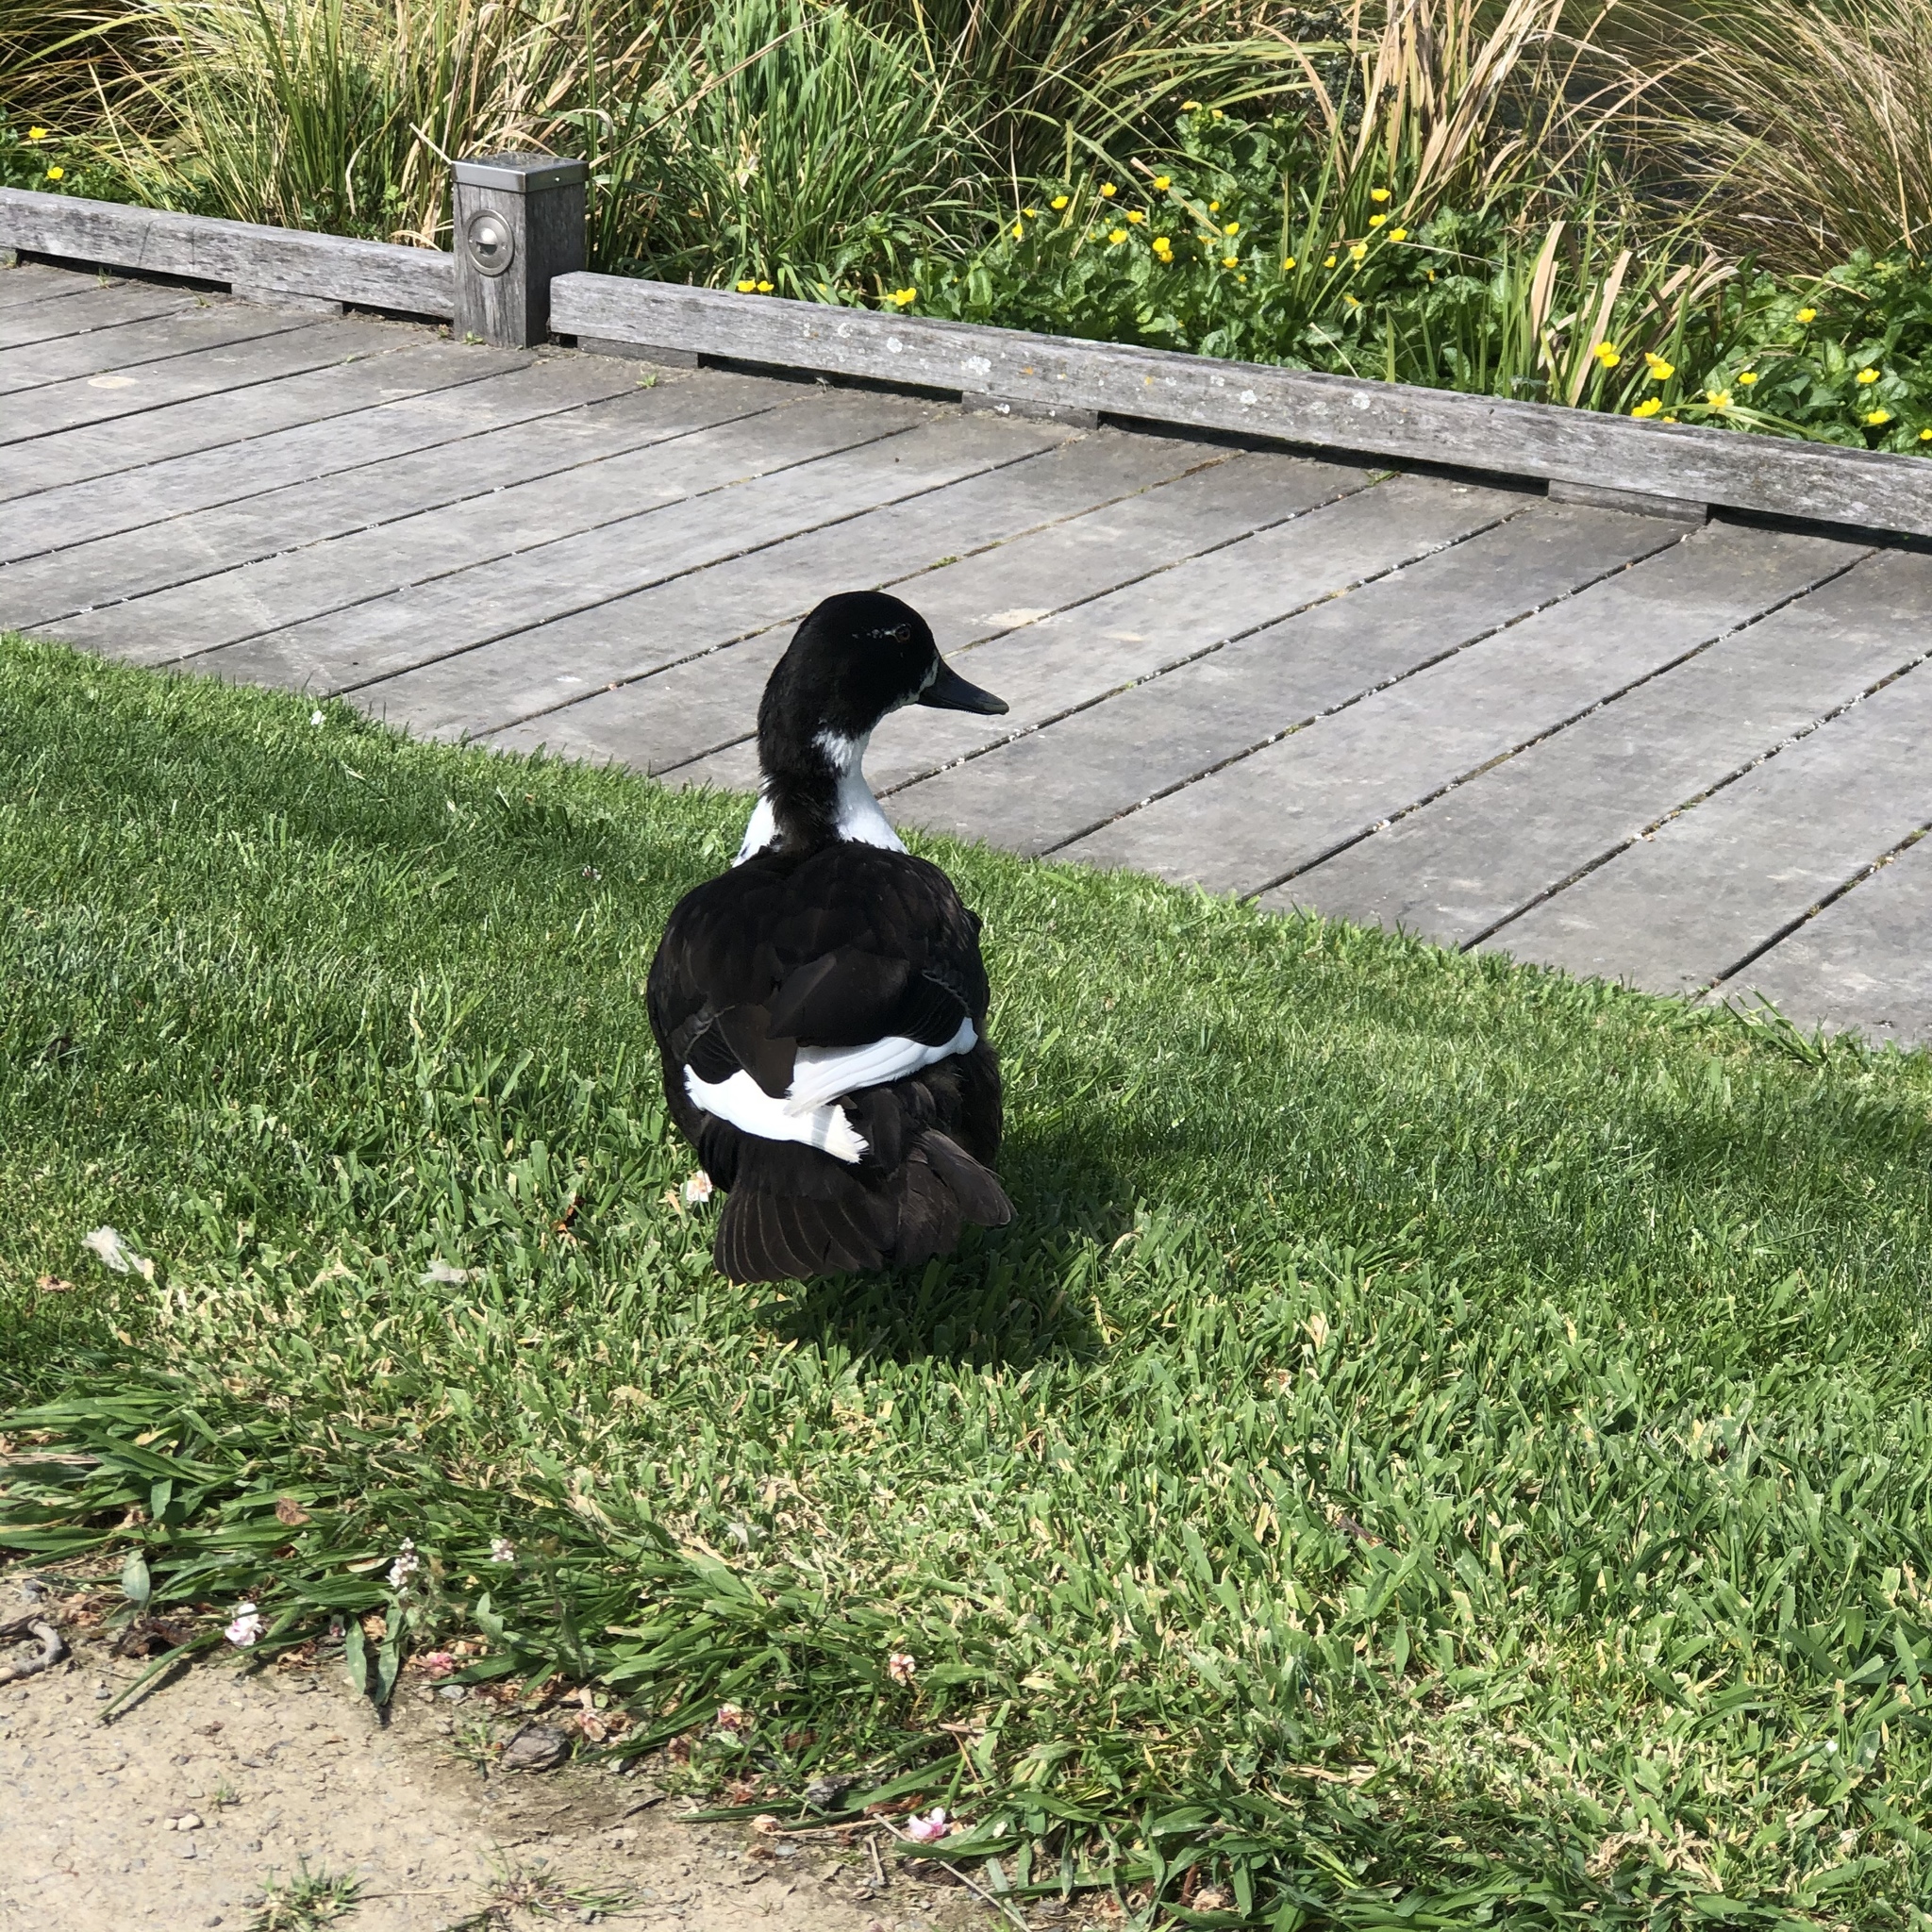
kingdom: Animalia
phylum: Chordata
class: Aves
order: Anseriformes
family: Anatidae
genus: Anas
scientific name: Anas platyrhynchos
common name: Mallard
